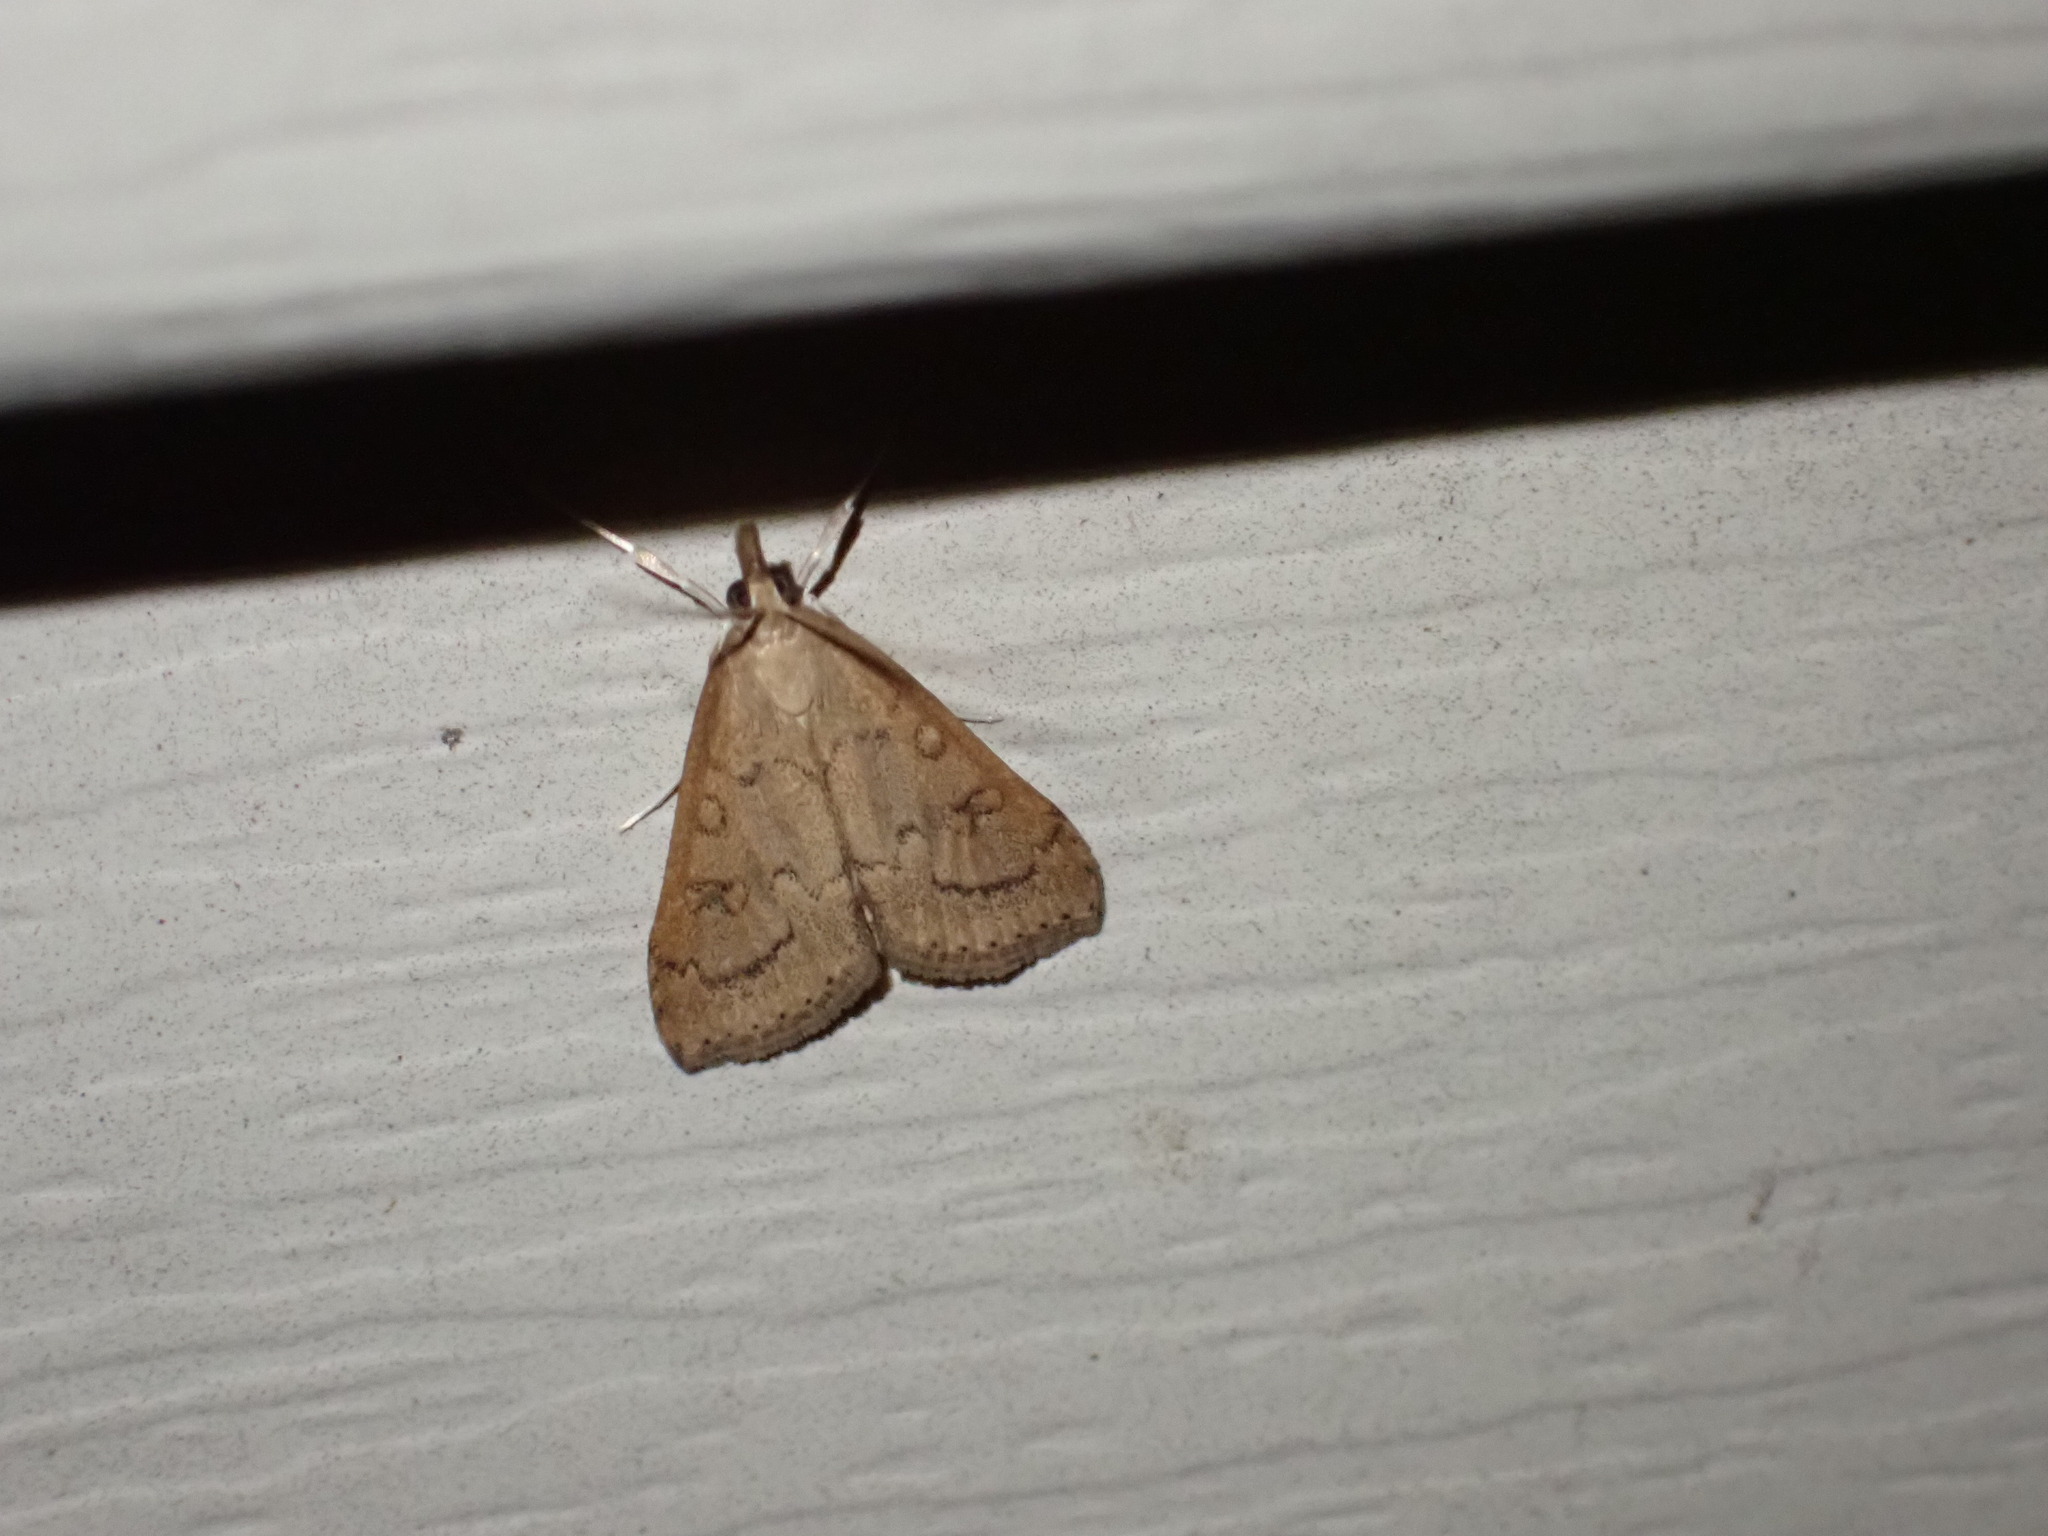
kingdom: Animalia
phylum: Arthropoda
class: Insecta
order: Lepidoptera
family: Crambidae
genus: Udea
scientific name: Udea rubigalis
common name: Celery leaftier moth
